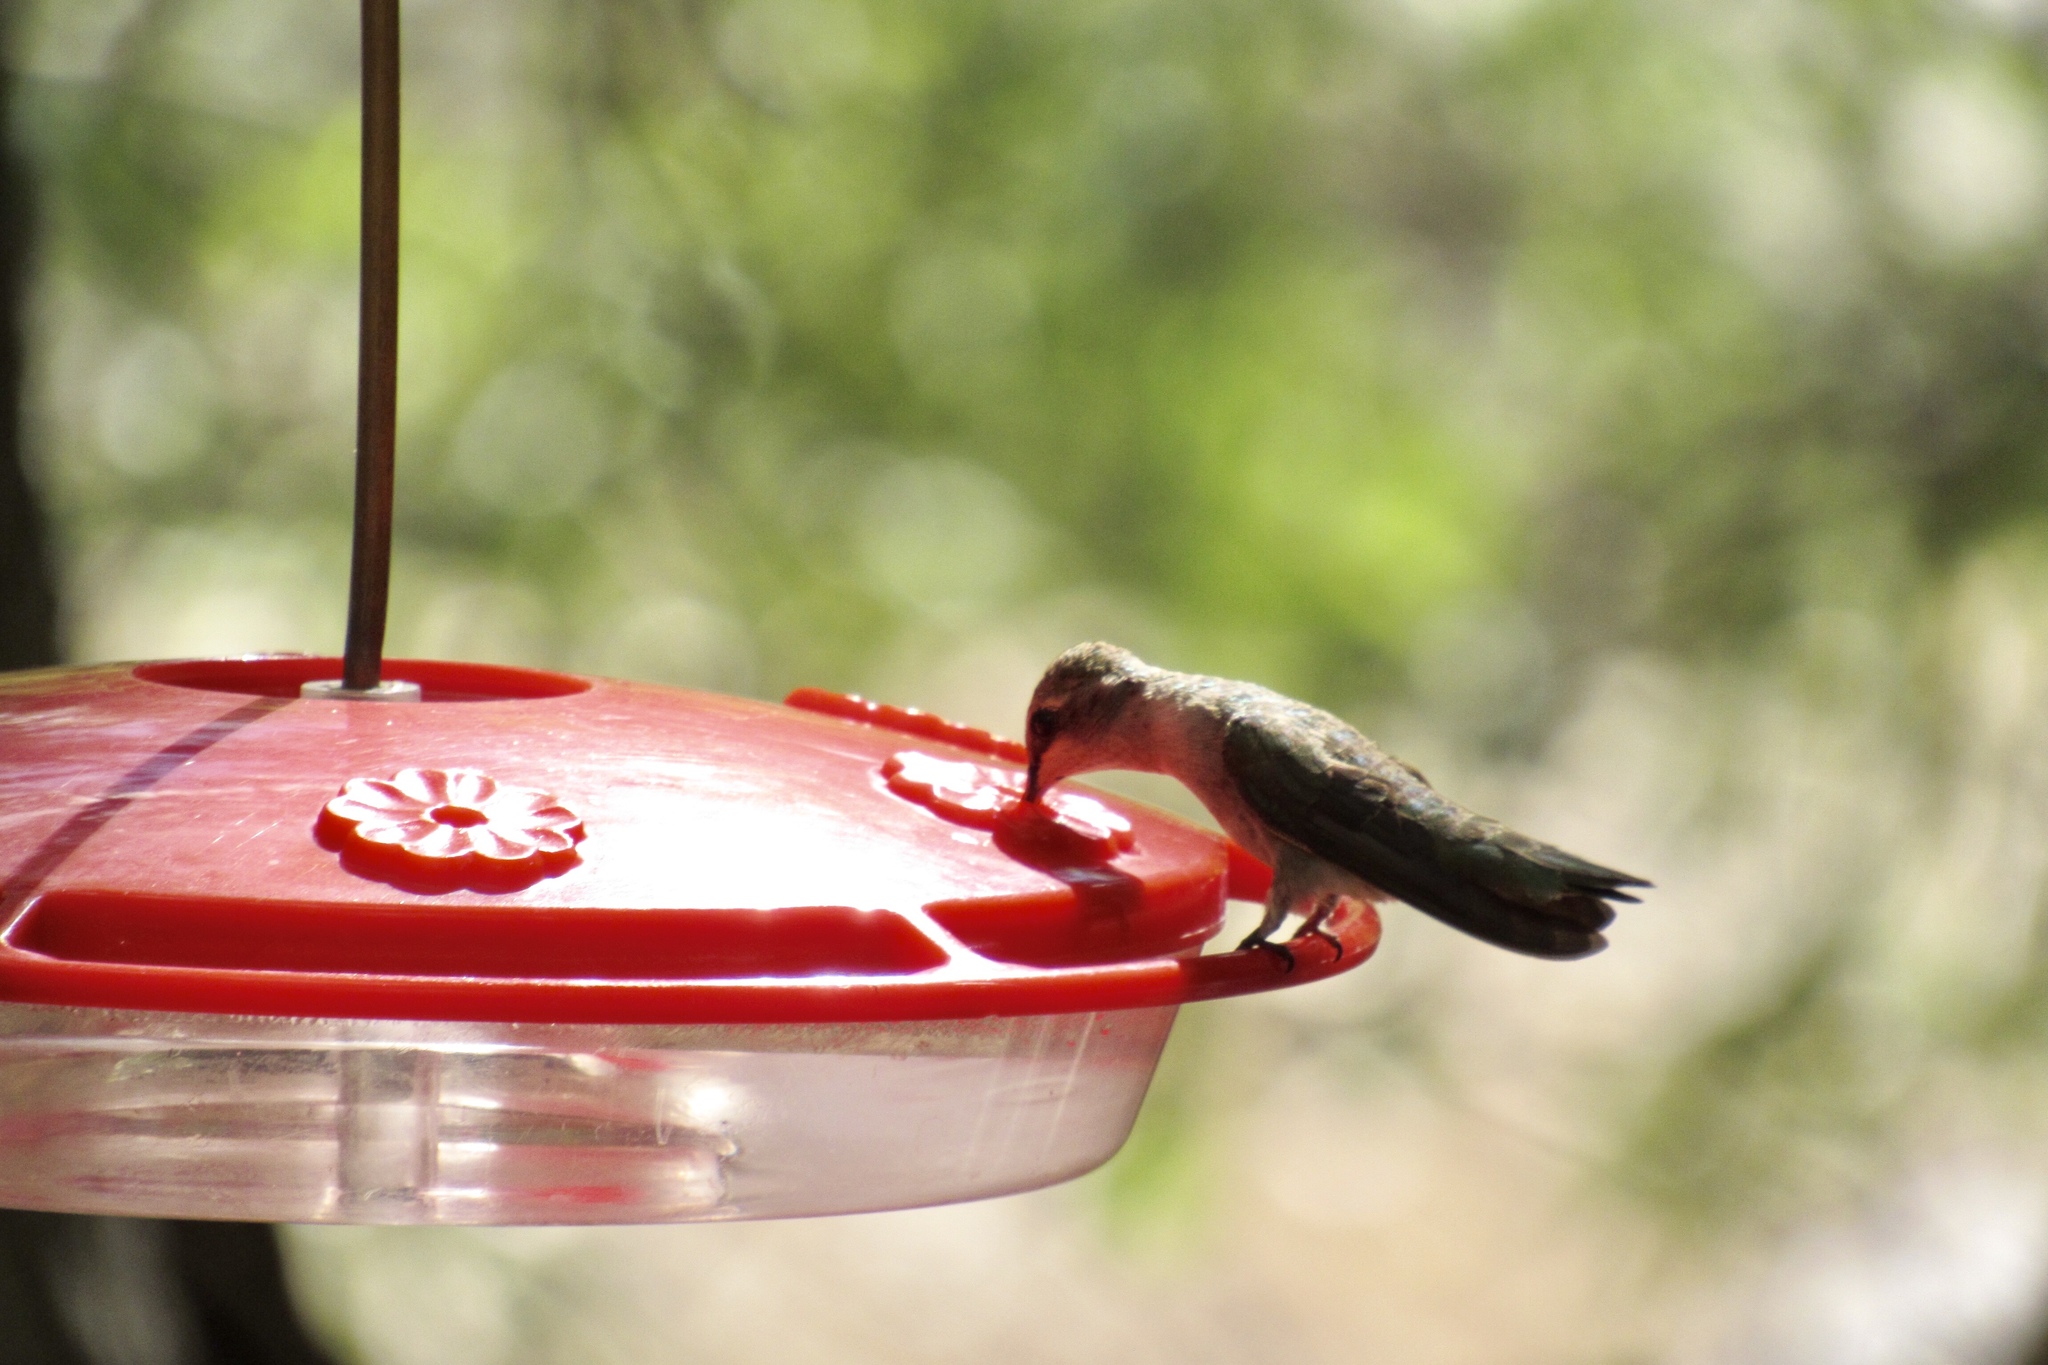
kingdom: Animalia
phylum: Chordata
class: Aves
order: Apodiformes
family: Trochilidae
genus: Archilochus
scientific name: Archilochus alexandri
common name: Black-chinned hummingbird
